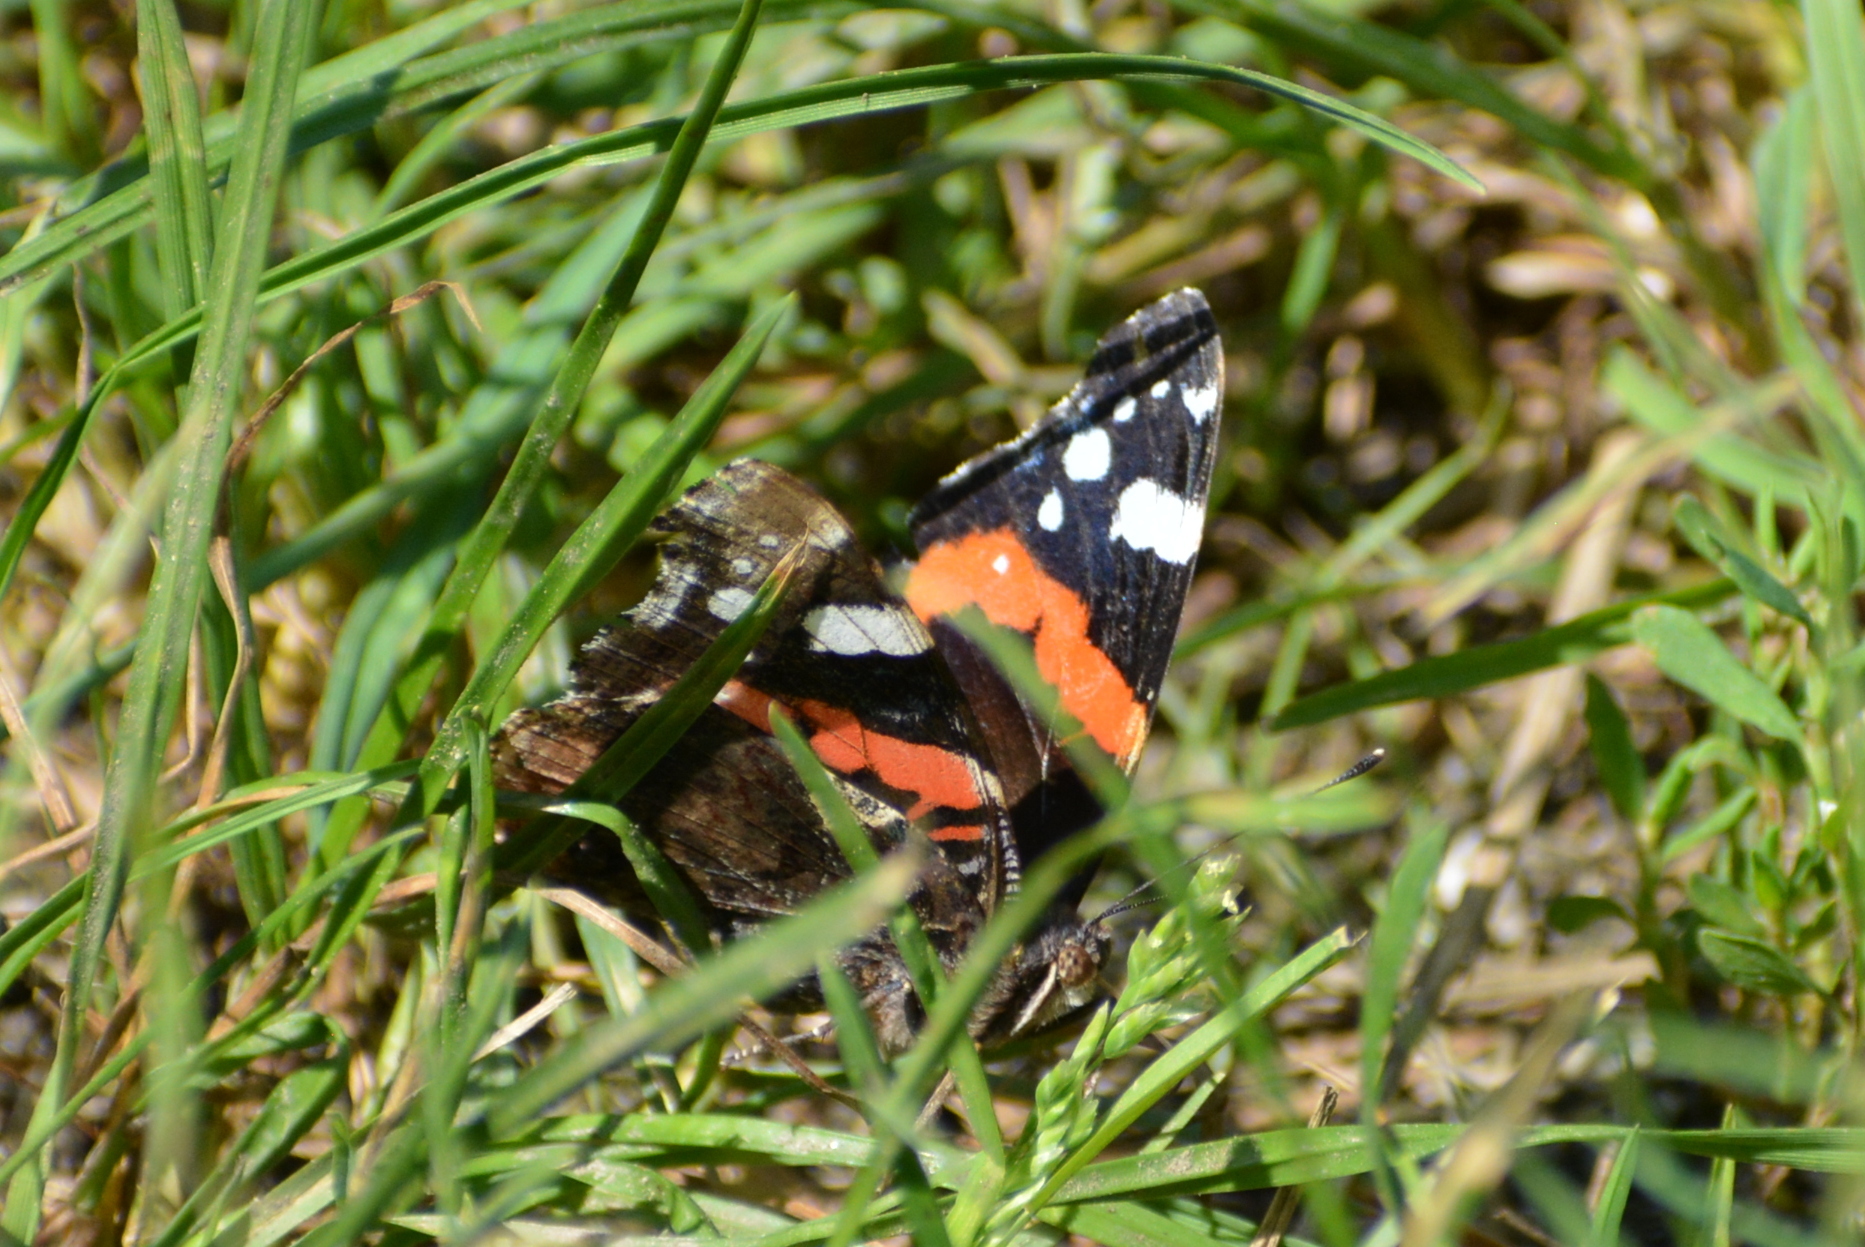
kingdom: Animalia
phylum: Arthropoda
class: Insecta
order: Lepidoptera
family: Nymphalidae
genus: Vanessa
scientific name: Vanessa atalanta
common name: Red admiral
